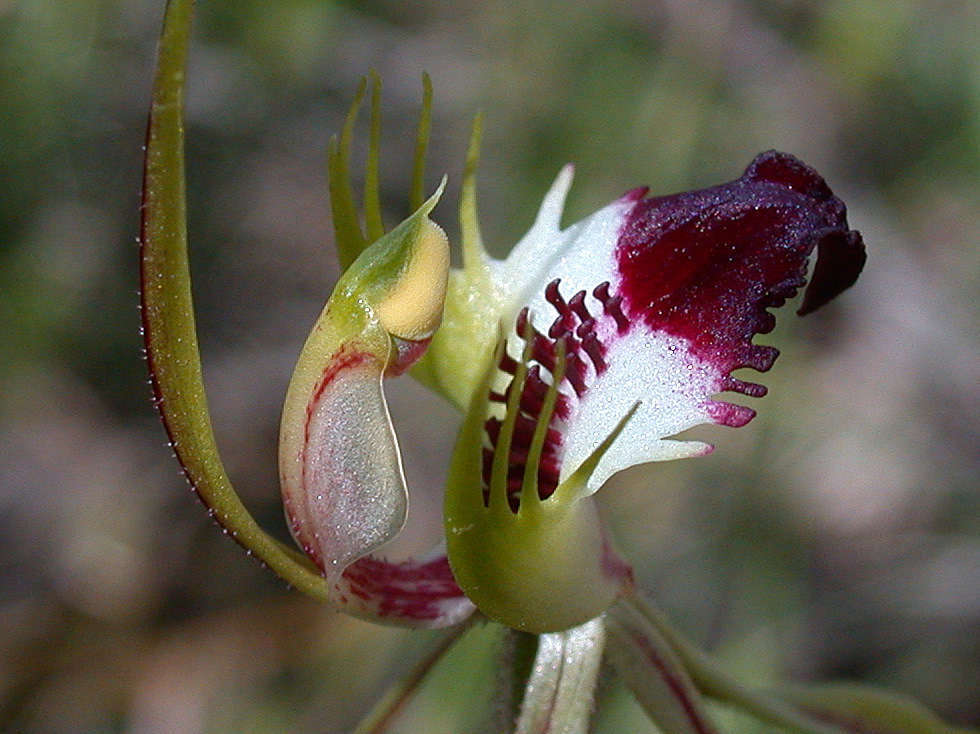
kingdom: Plantae
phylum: Tracheophyta
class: Liliopsida
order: Asparagales
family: Orchidaceae
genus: Caladenia
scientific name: Caladenia tentaculata
